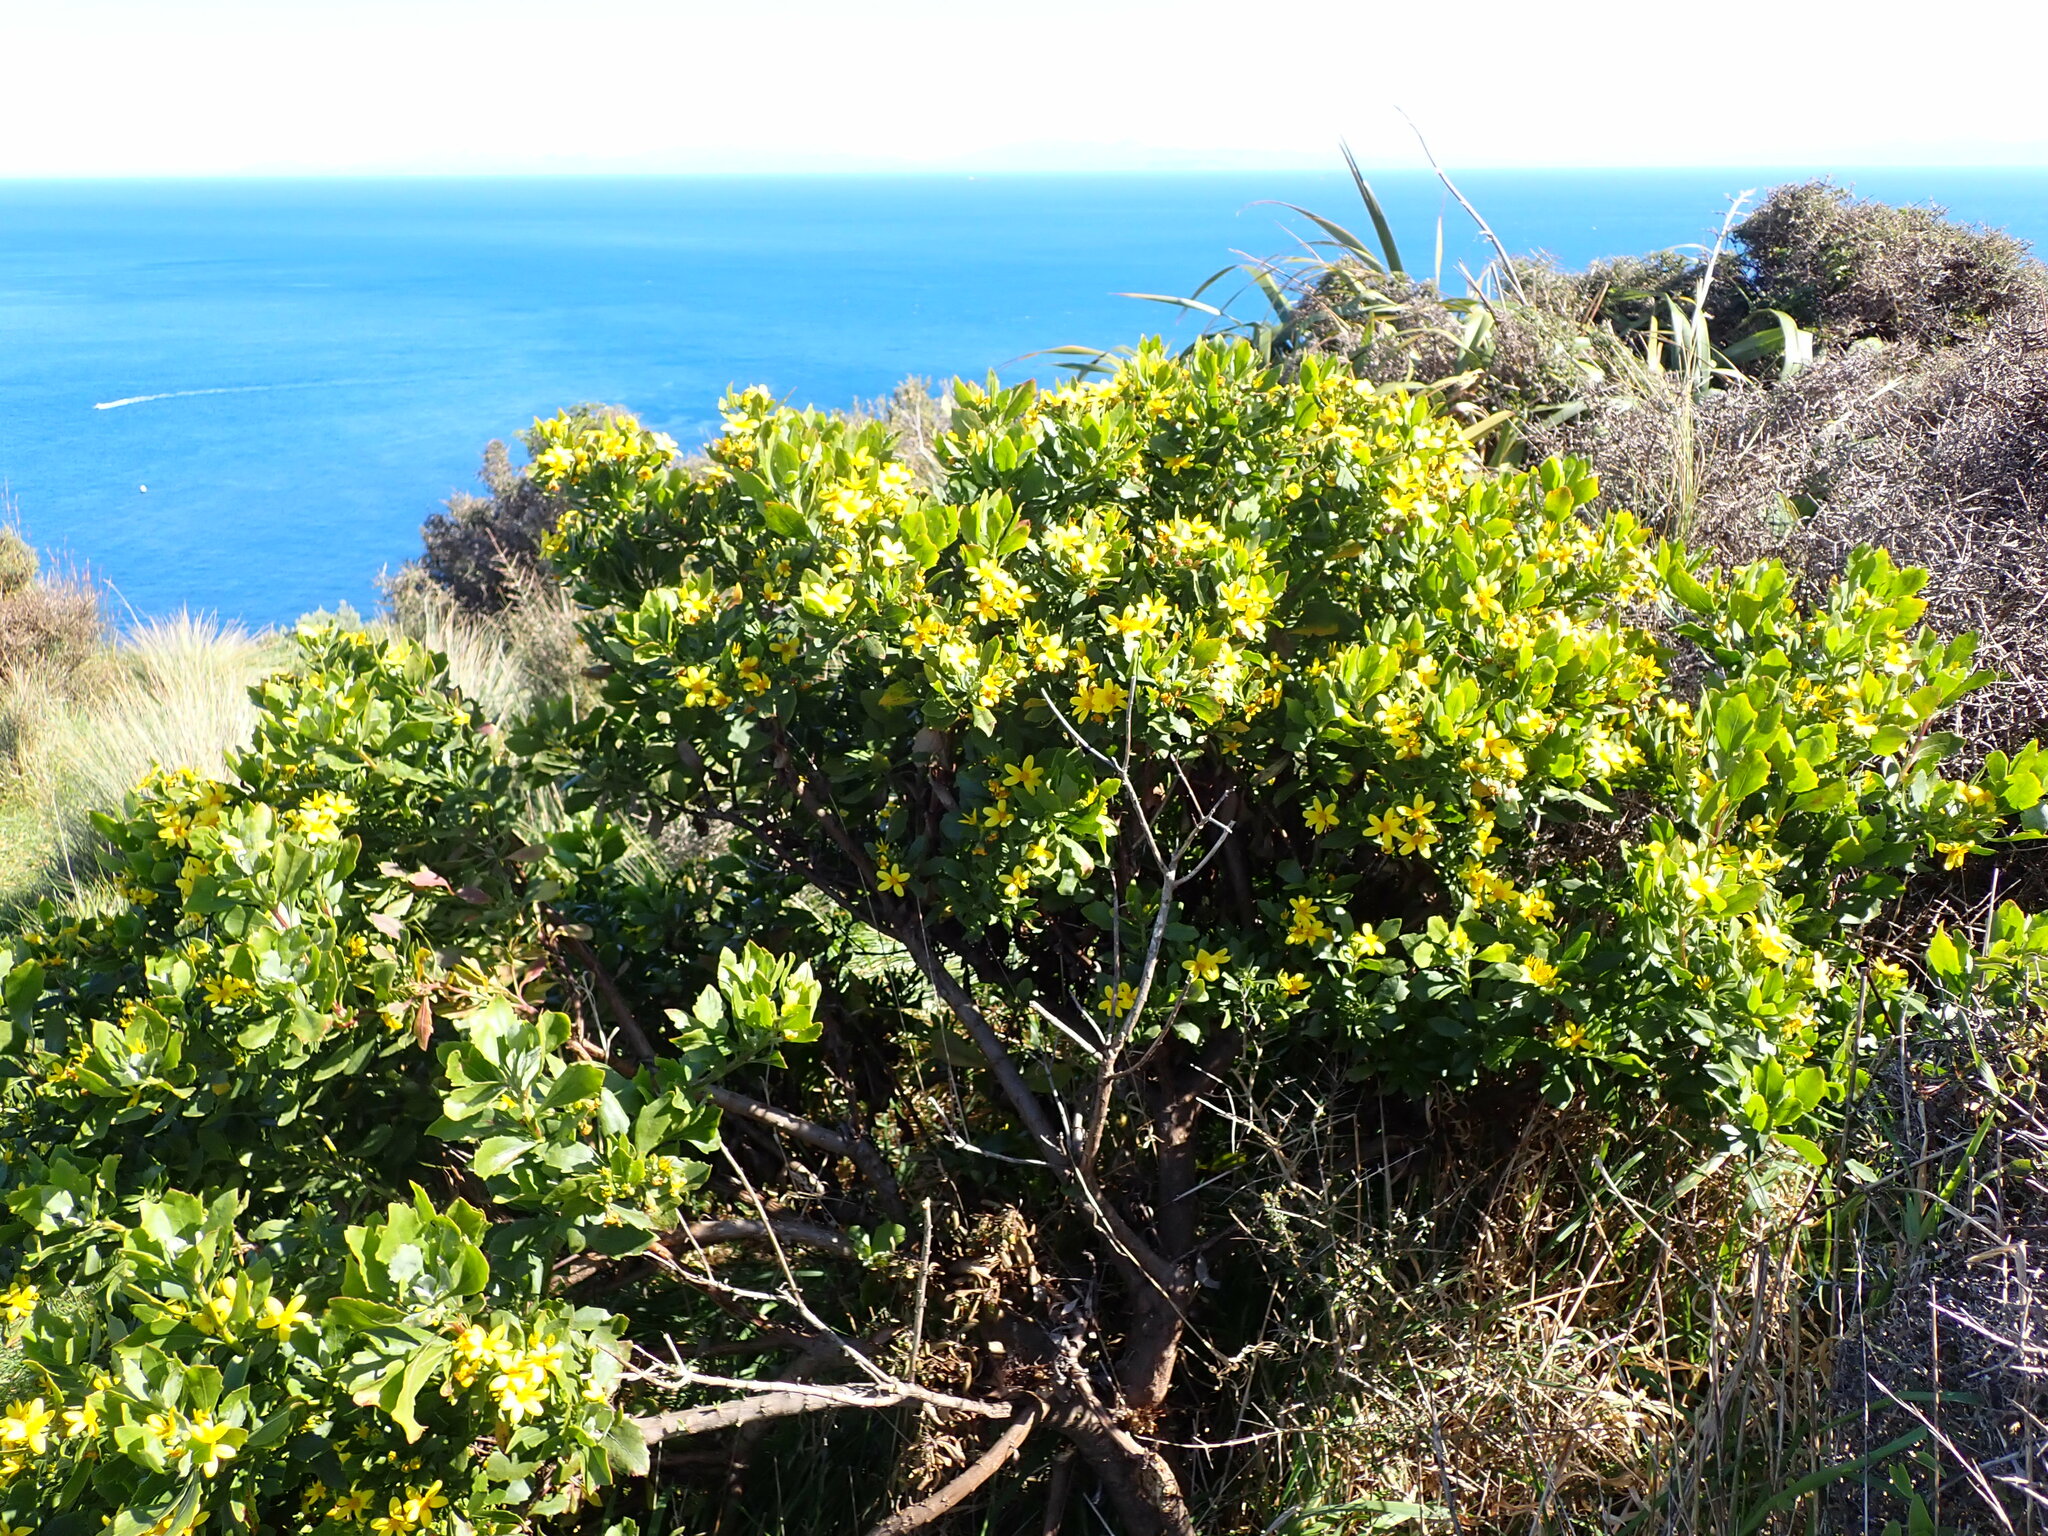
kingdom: Plantae
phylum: Tracheophyta
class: Magnoliopsida
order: Asterales
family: Asteraceae
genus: Osteospermum
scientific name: Osteospermum moniliferum
